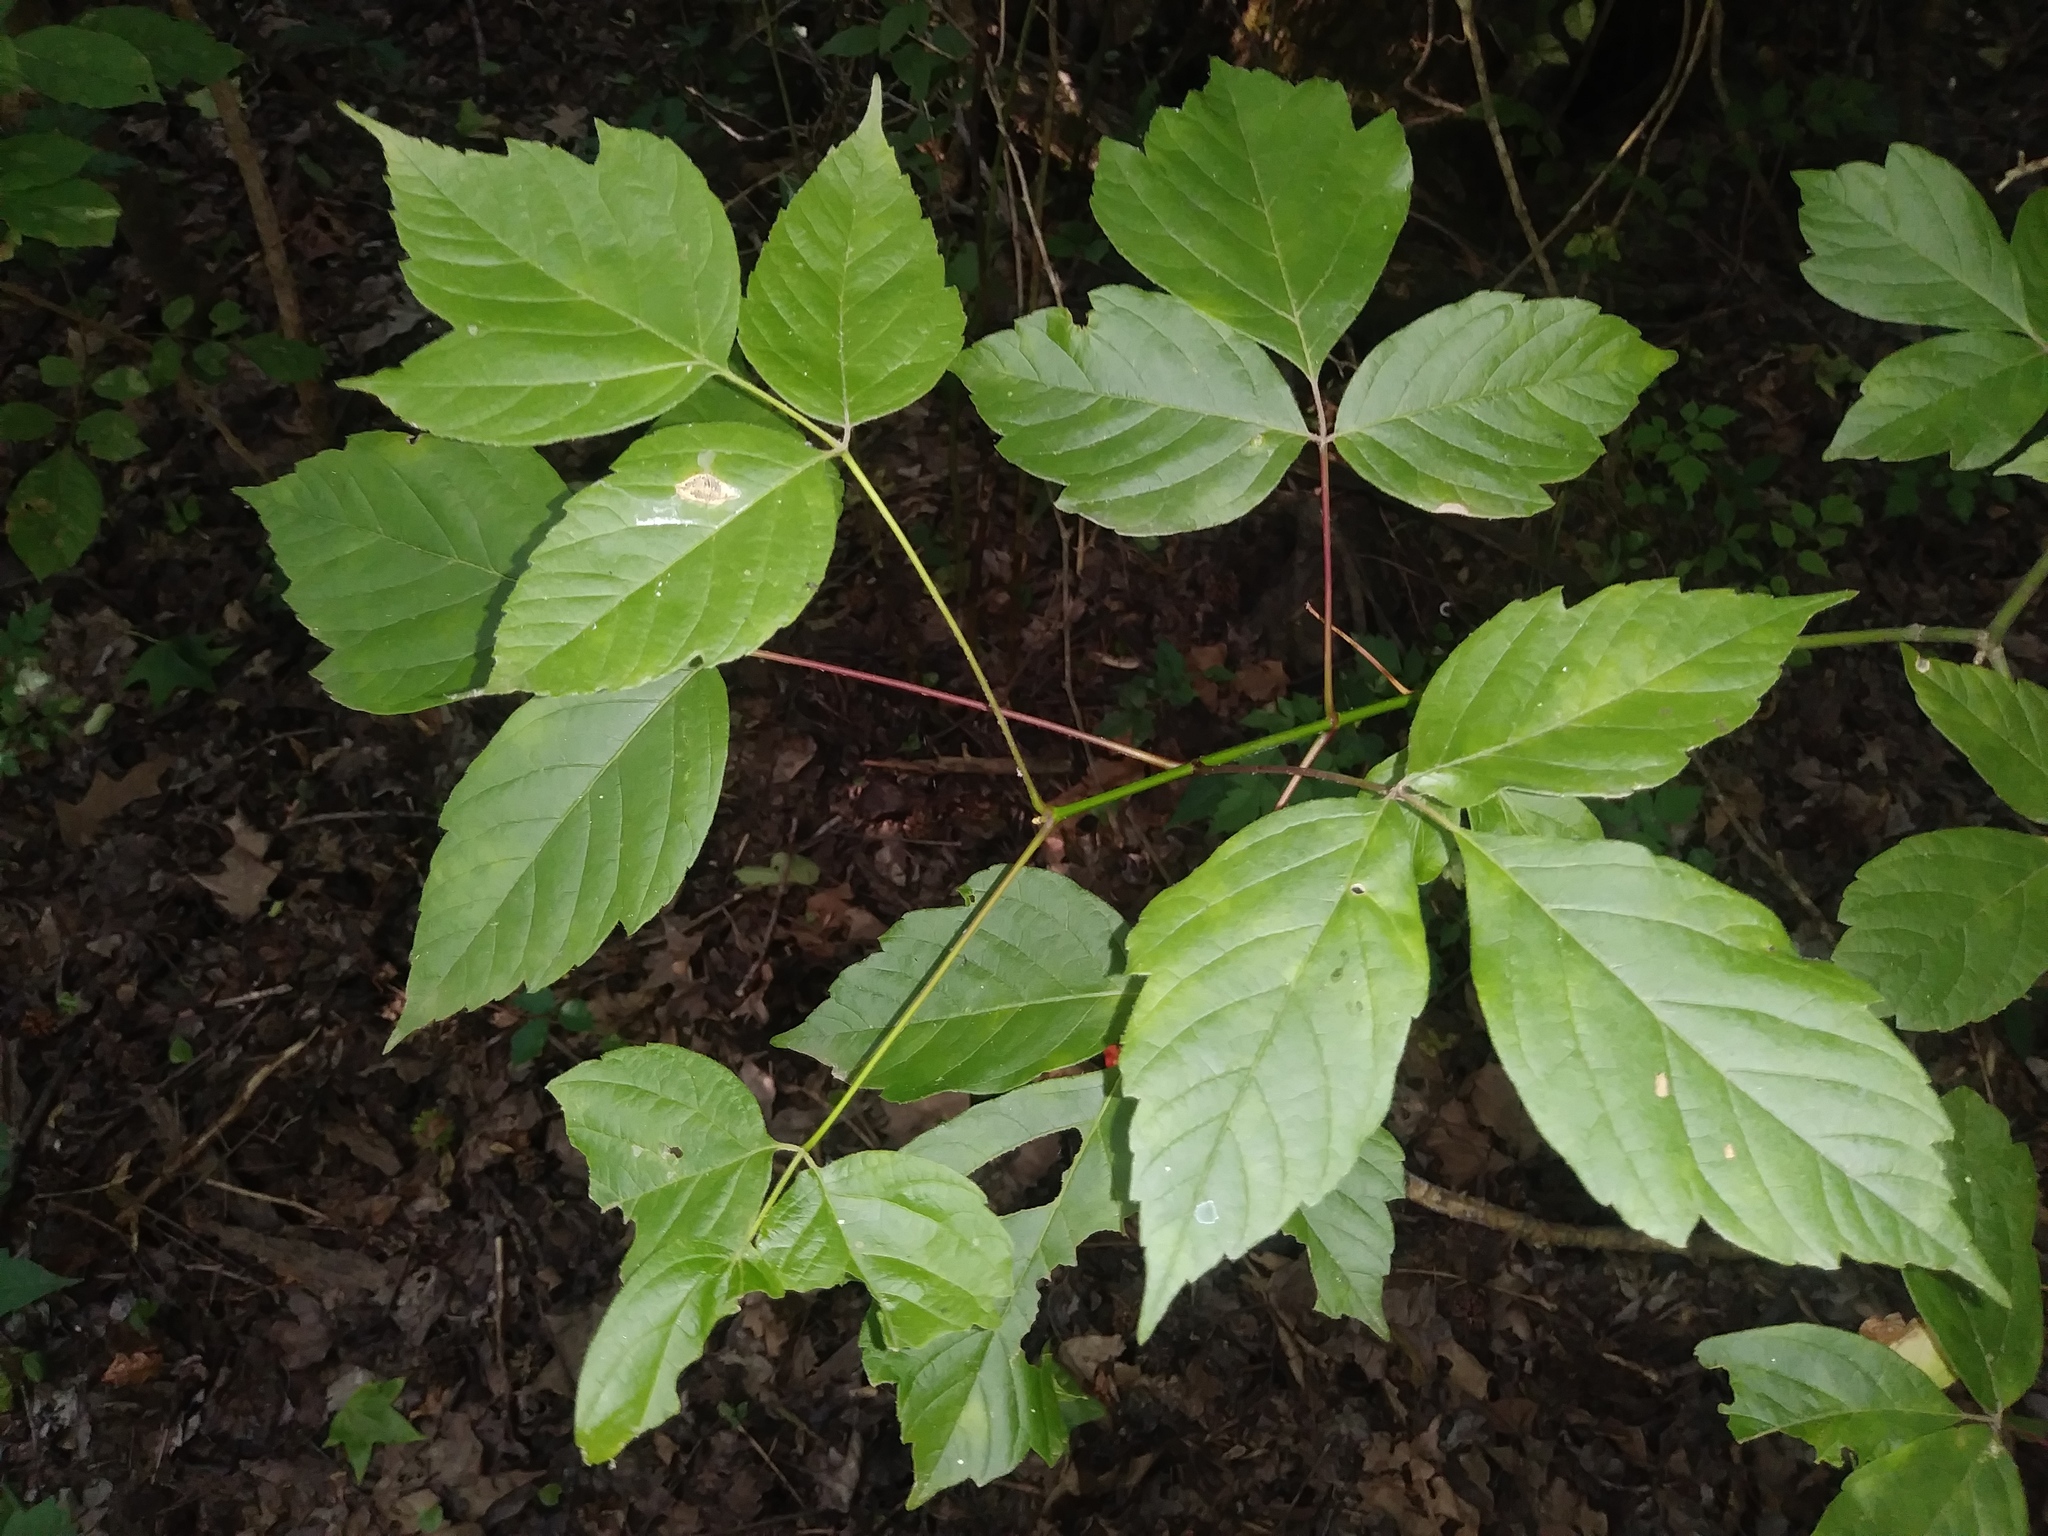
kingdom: Plantae
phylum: Tracheophyta
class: Magnoliopsida
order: Sapindales
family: Sapindaceae
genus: Acer
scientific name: Acer negundo
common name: Ashleaf maple
